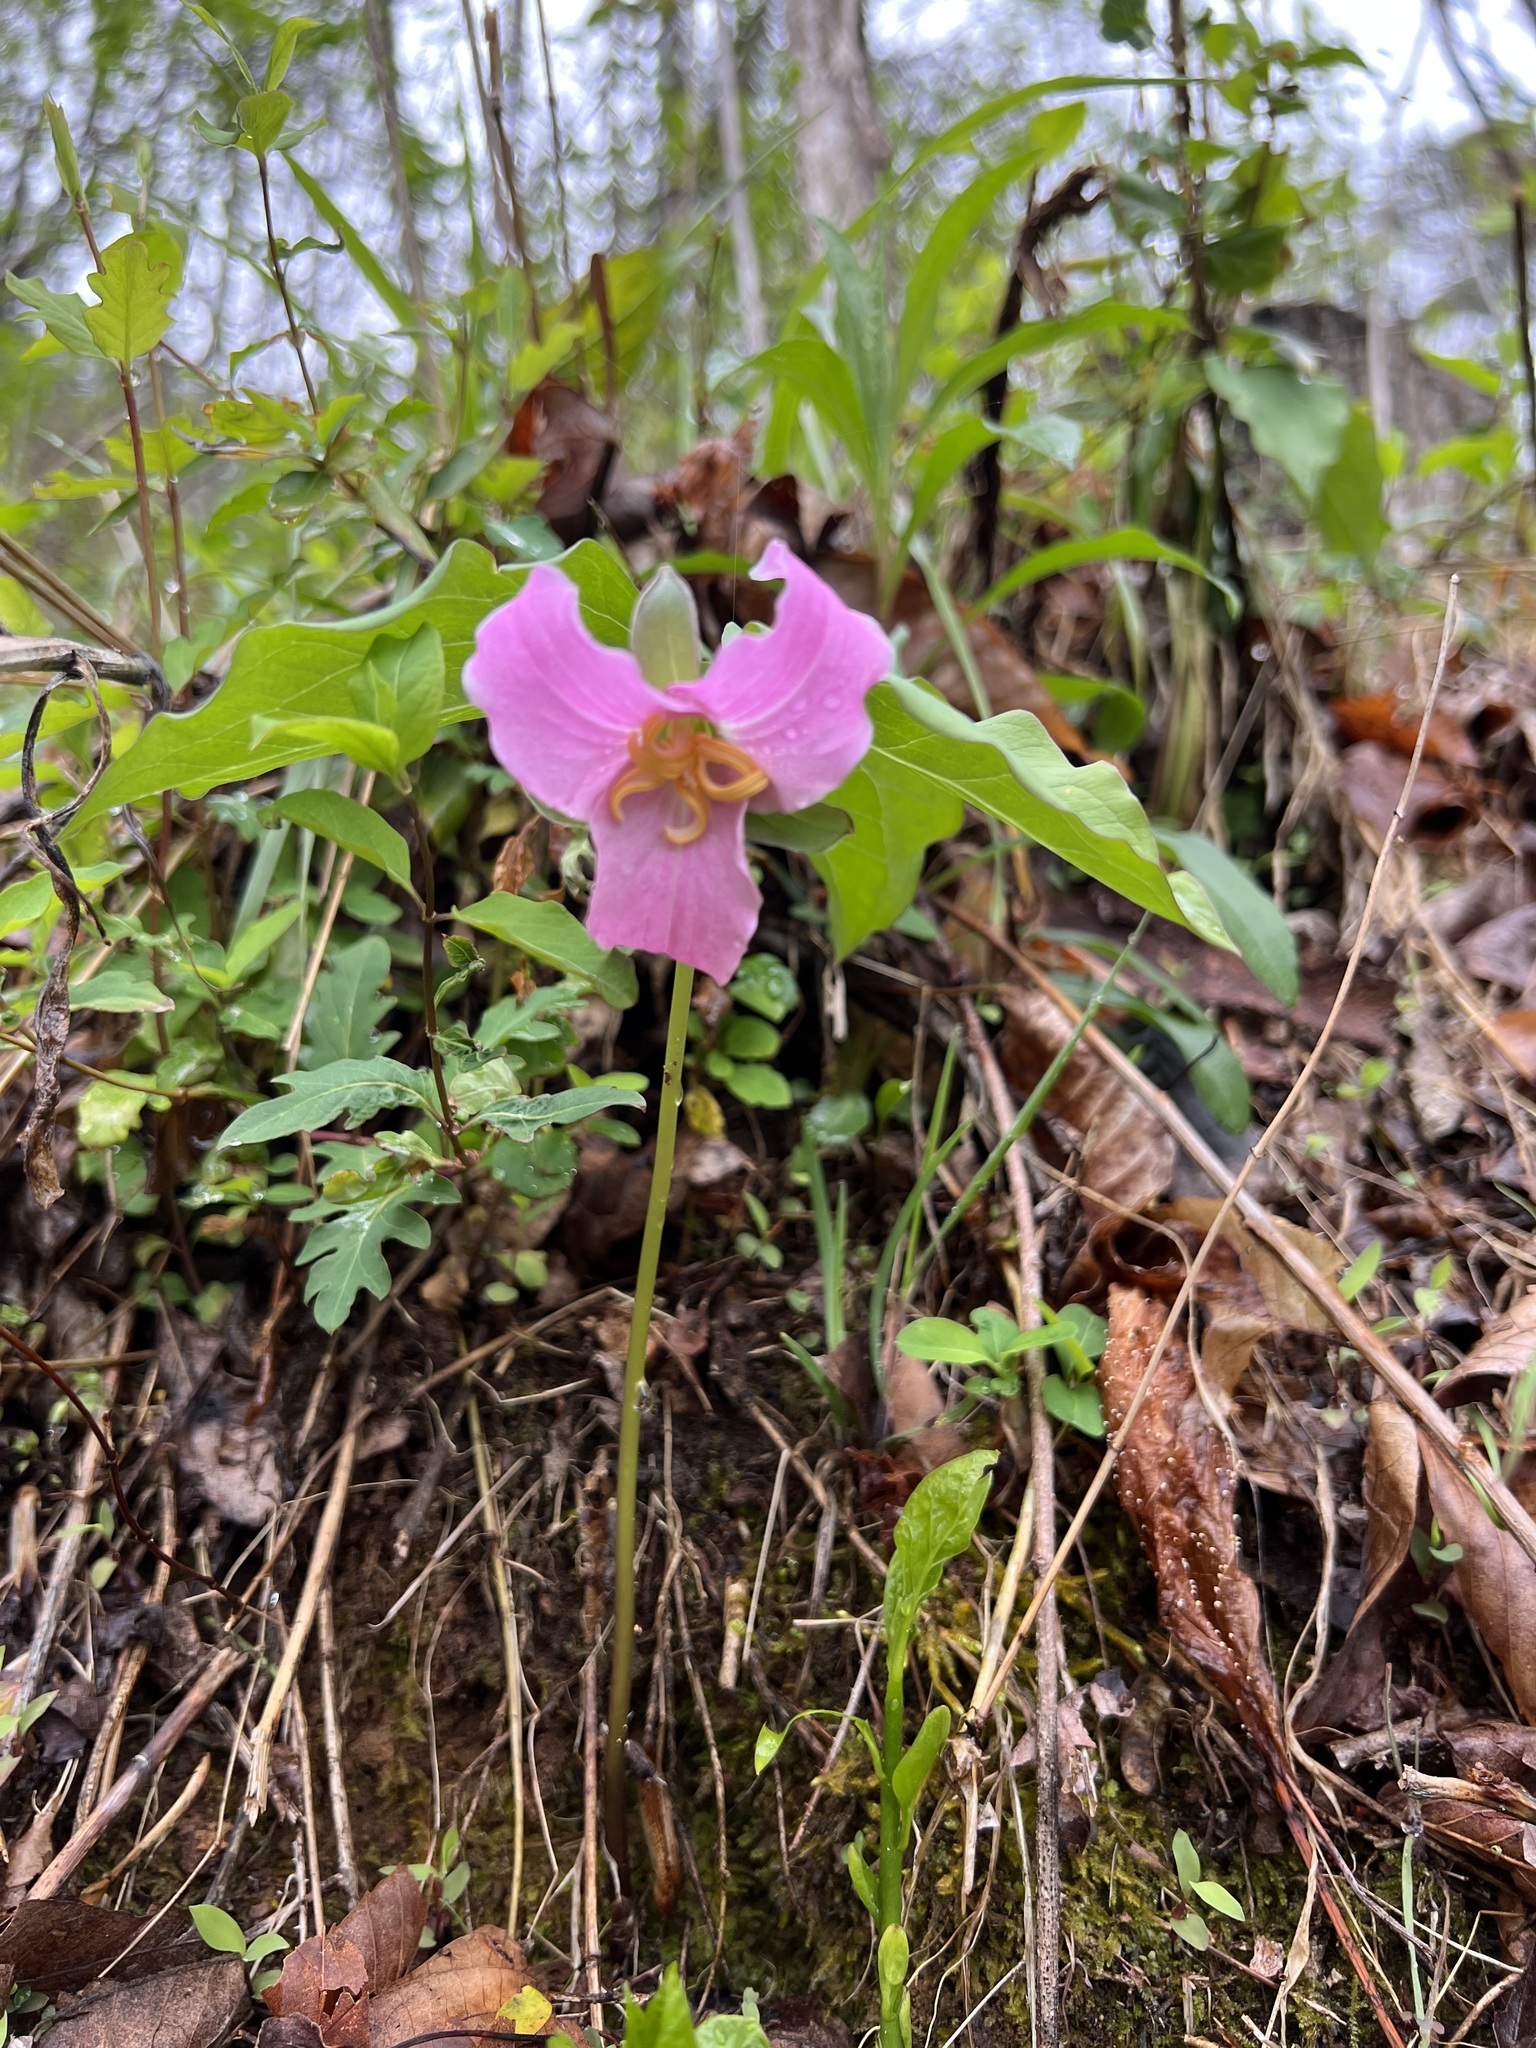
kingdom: Plantae
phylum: Tracheophyta
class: Liliopsida
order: Liliales
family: Melanthiaceae
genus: Trillium
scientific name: Trillium catesbaei
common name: Bashful trillium
